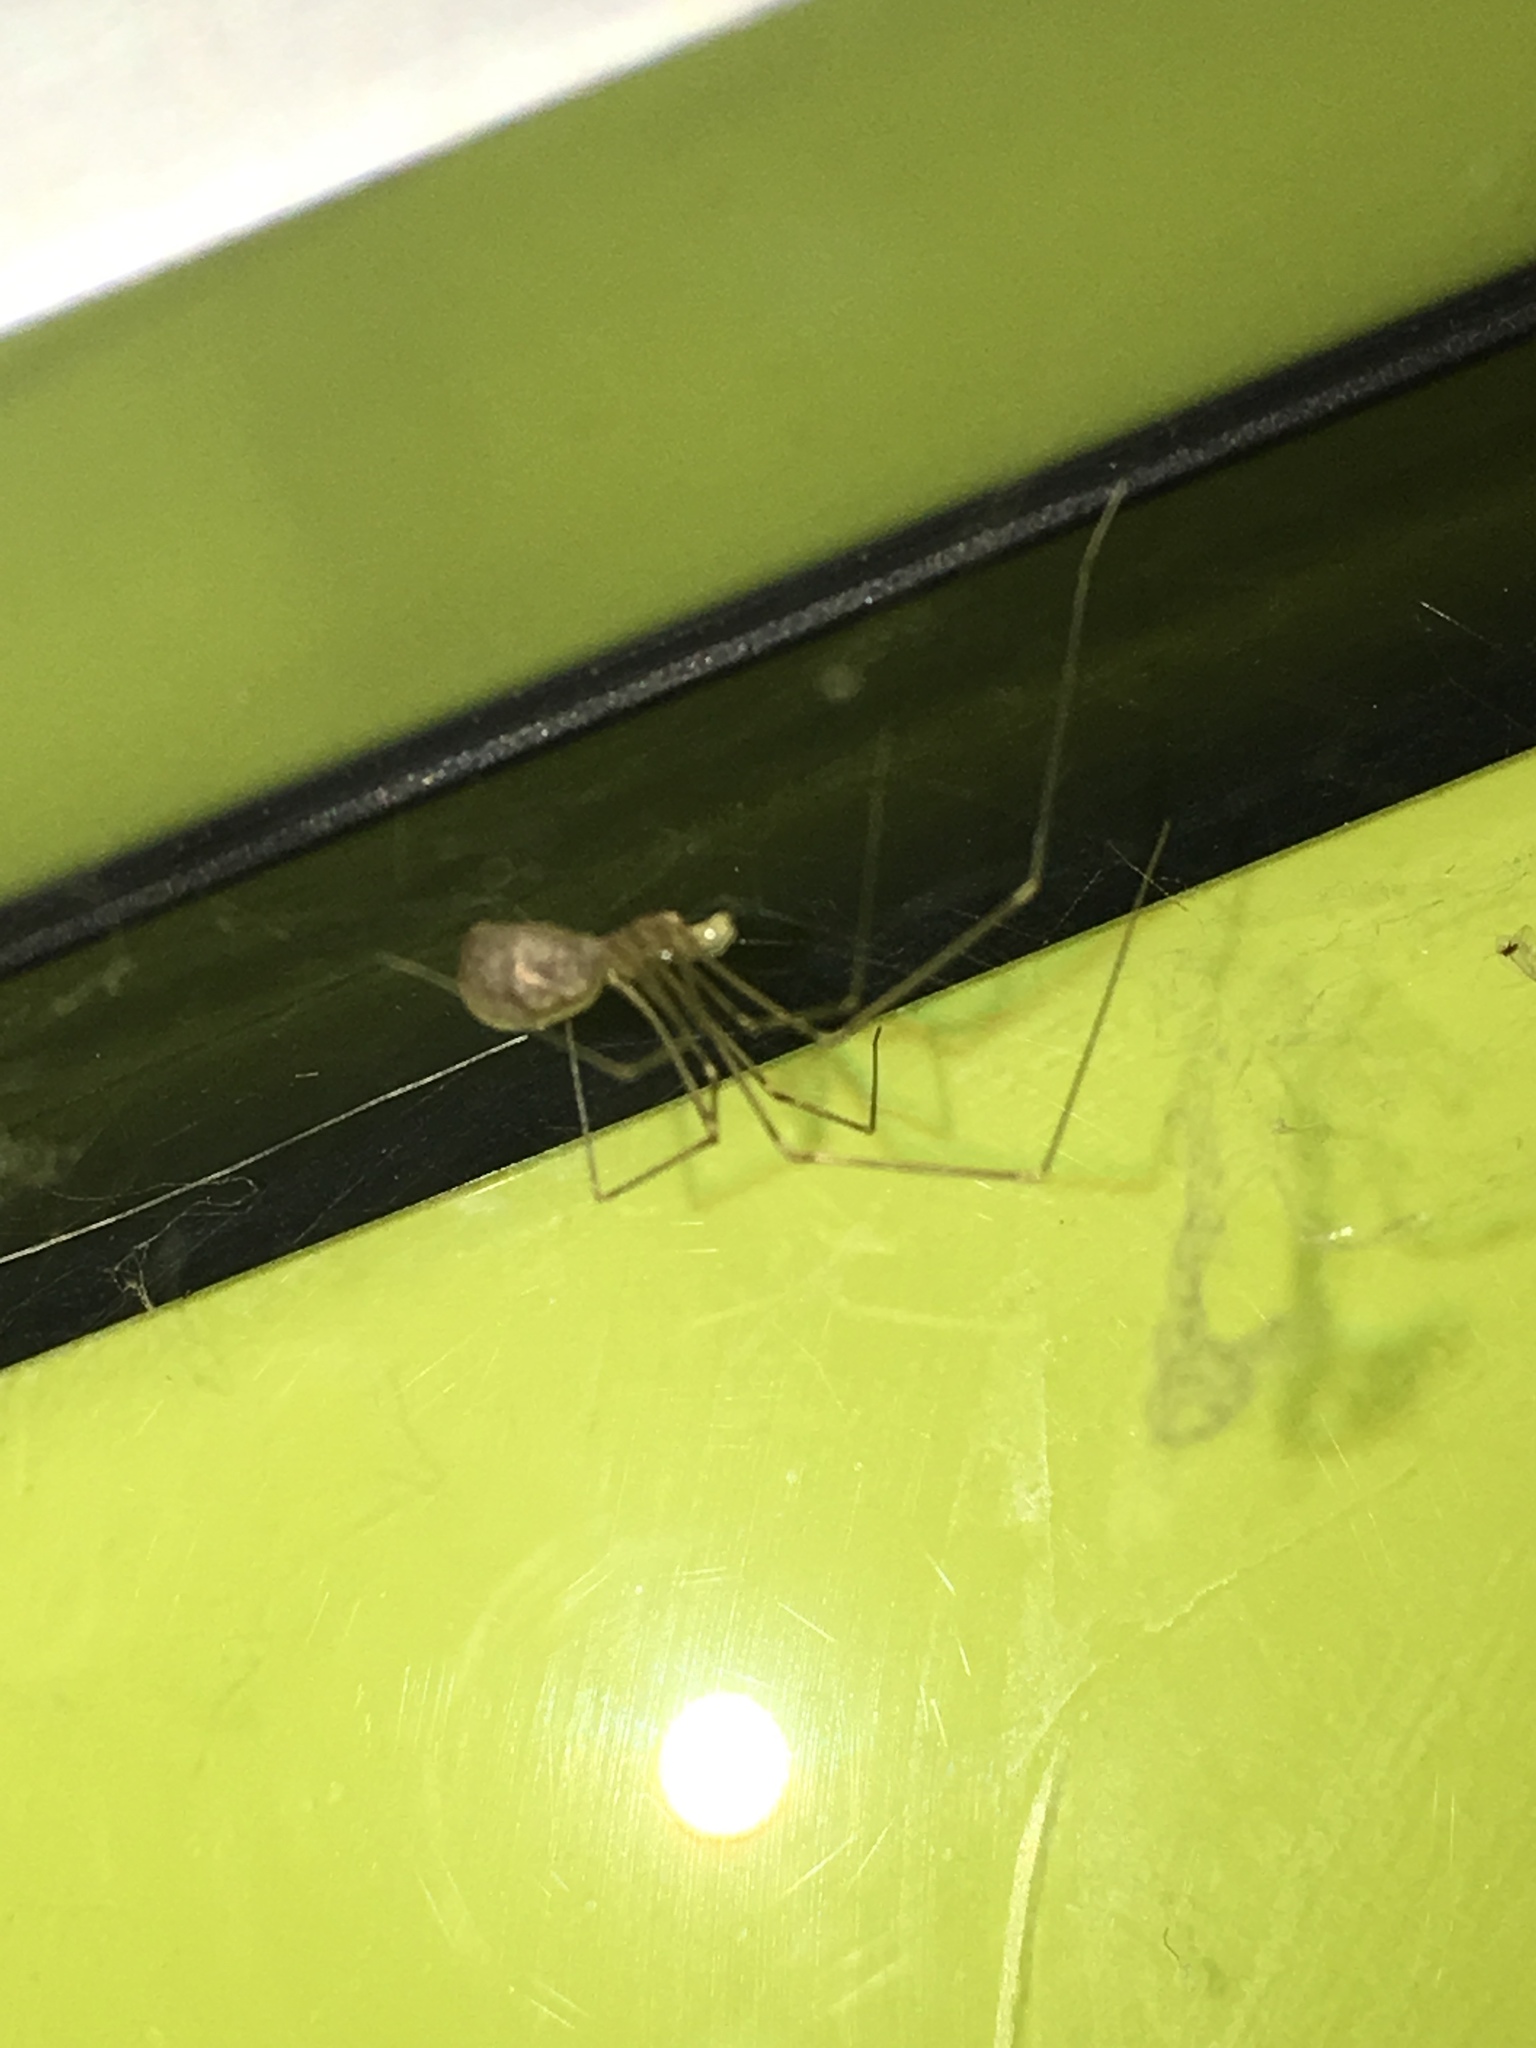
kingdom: Animalia
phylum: Arthropoda
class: Arachnida
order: Araneae
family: Pholcidae
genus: Pholcus
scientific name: Pholcus phalangioides
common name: Longbodied cellar spider
